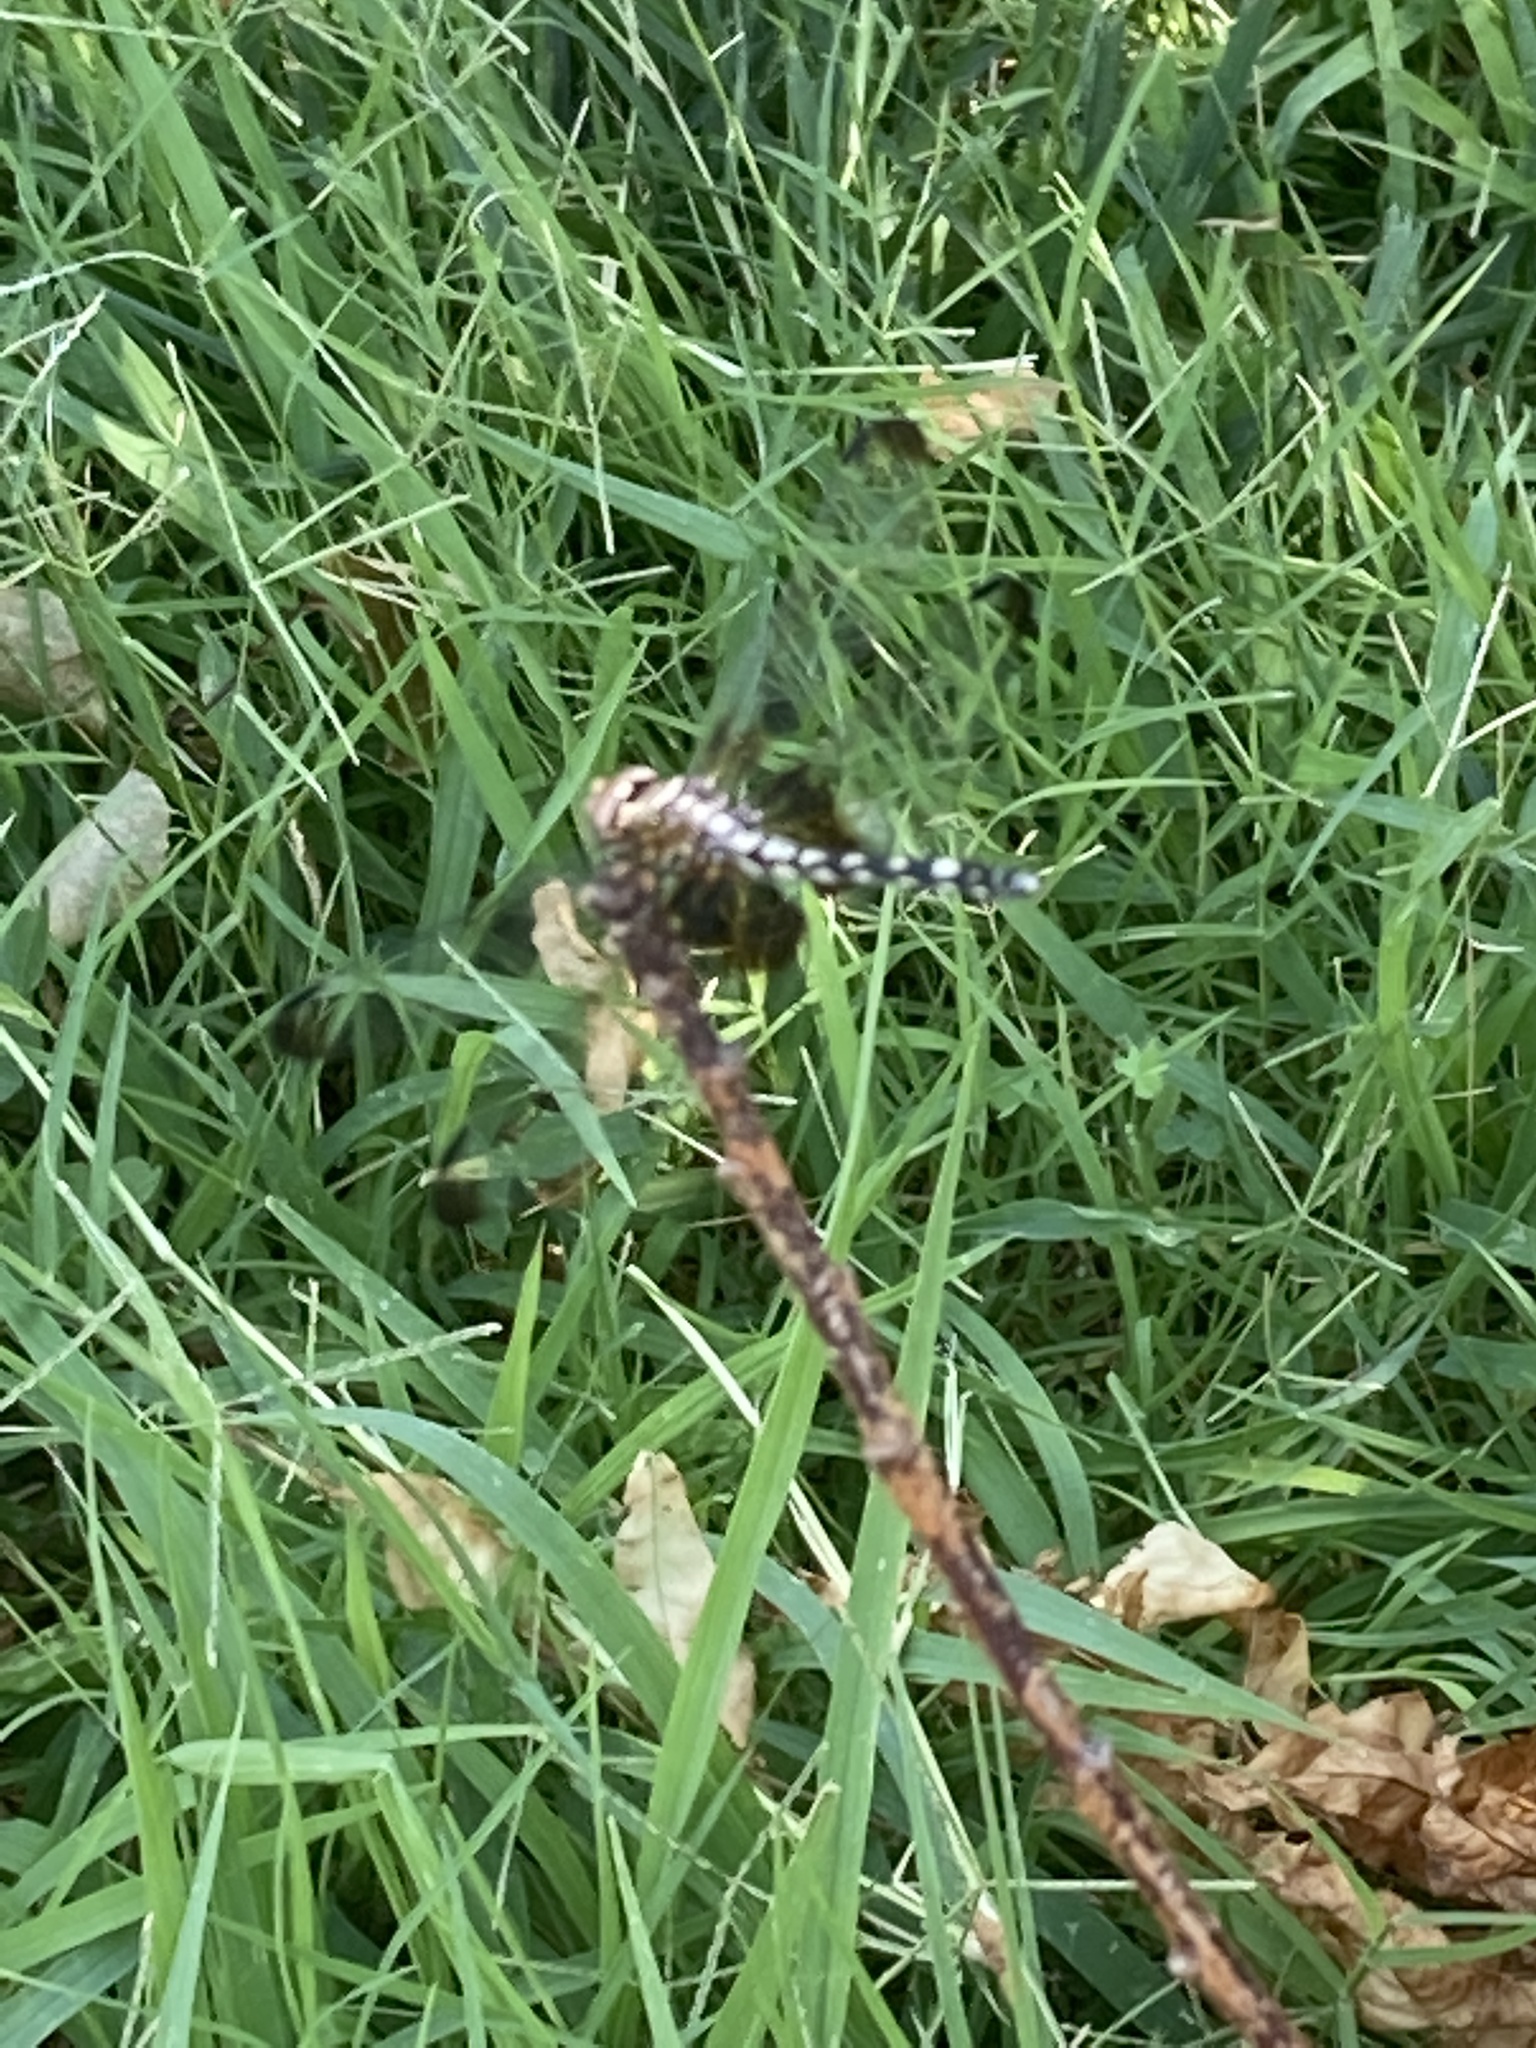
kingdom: Animalia
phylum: Arthropoda
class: Insecta
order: Odonata
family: Libellulidae
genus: Dythemis
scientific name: Dythemis fugax
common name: Checkered setwing
